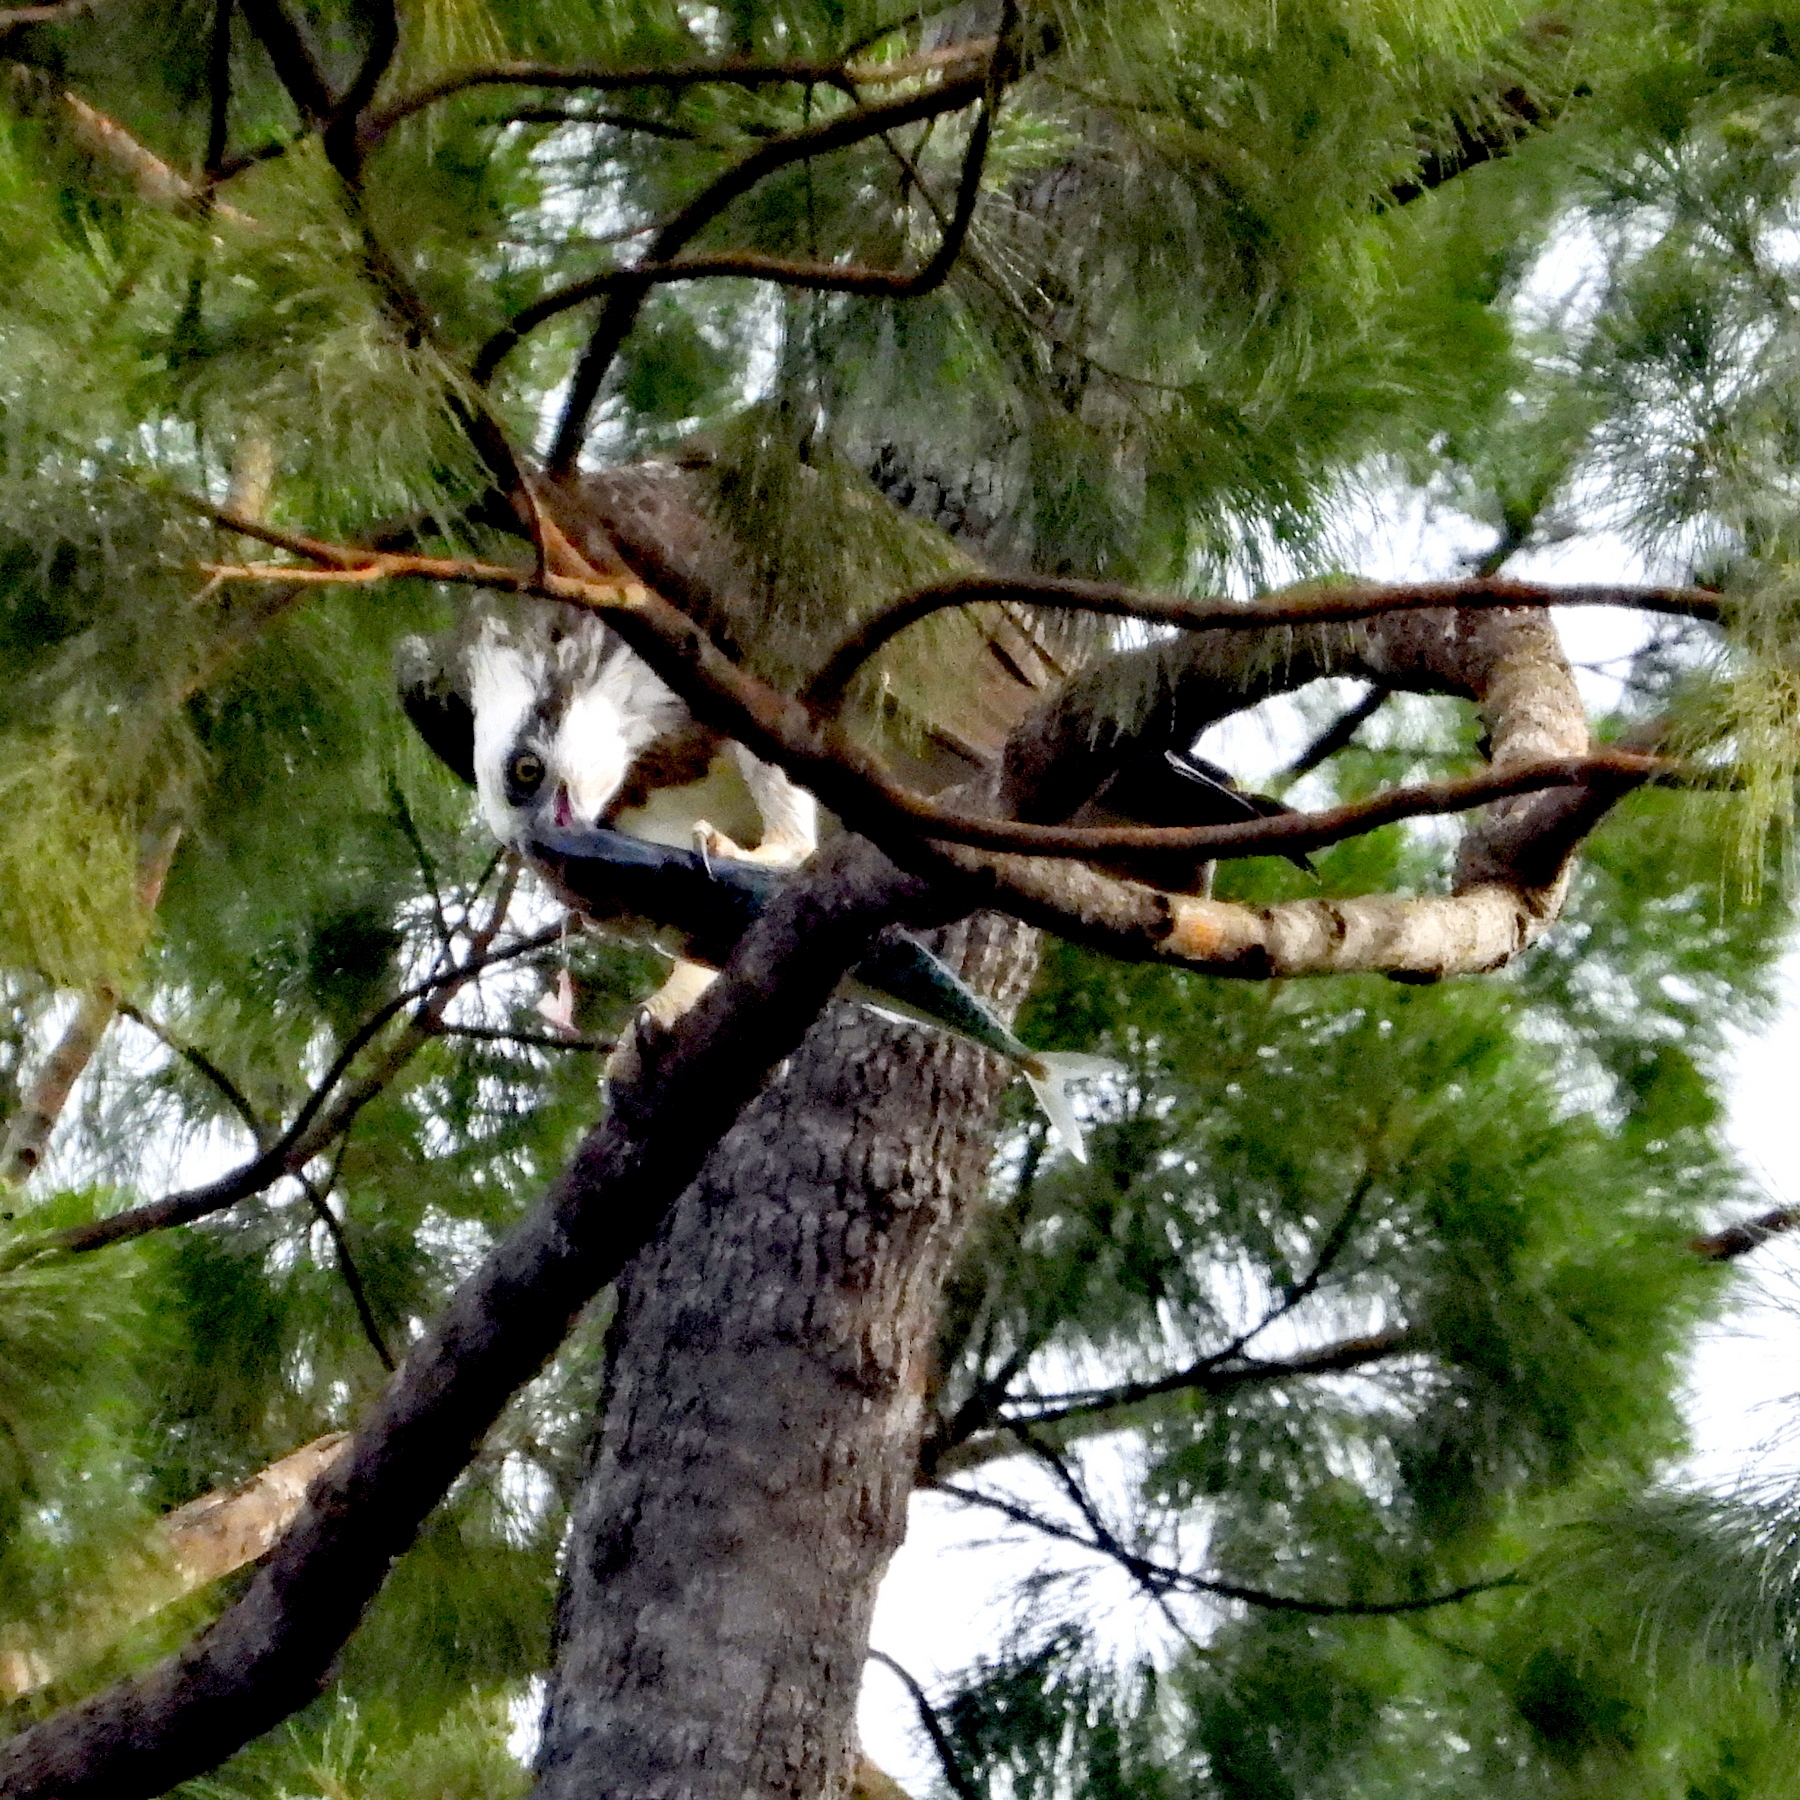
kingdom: Animalia
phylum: Chordata
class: Aves
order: Accipitriformes
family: Pandionidae
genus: Pandion
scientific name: Pandion haliaetus
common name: Osprey
